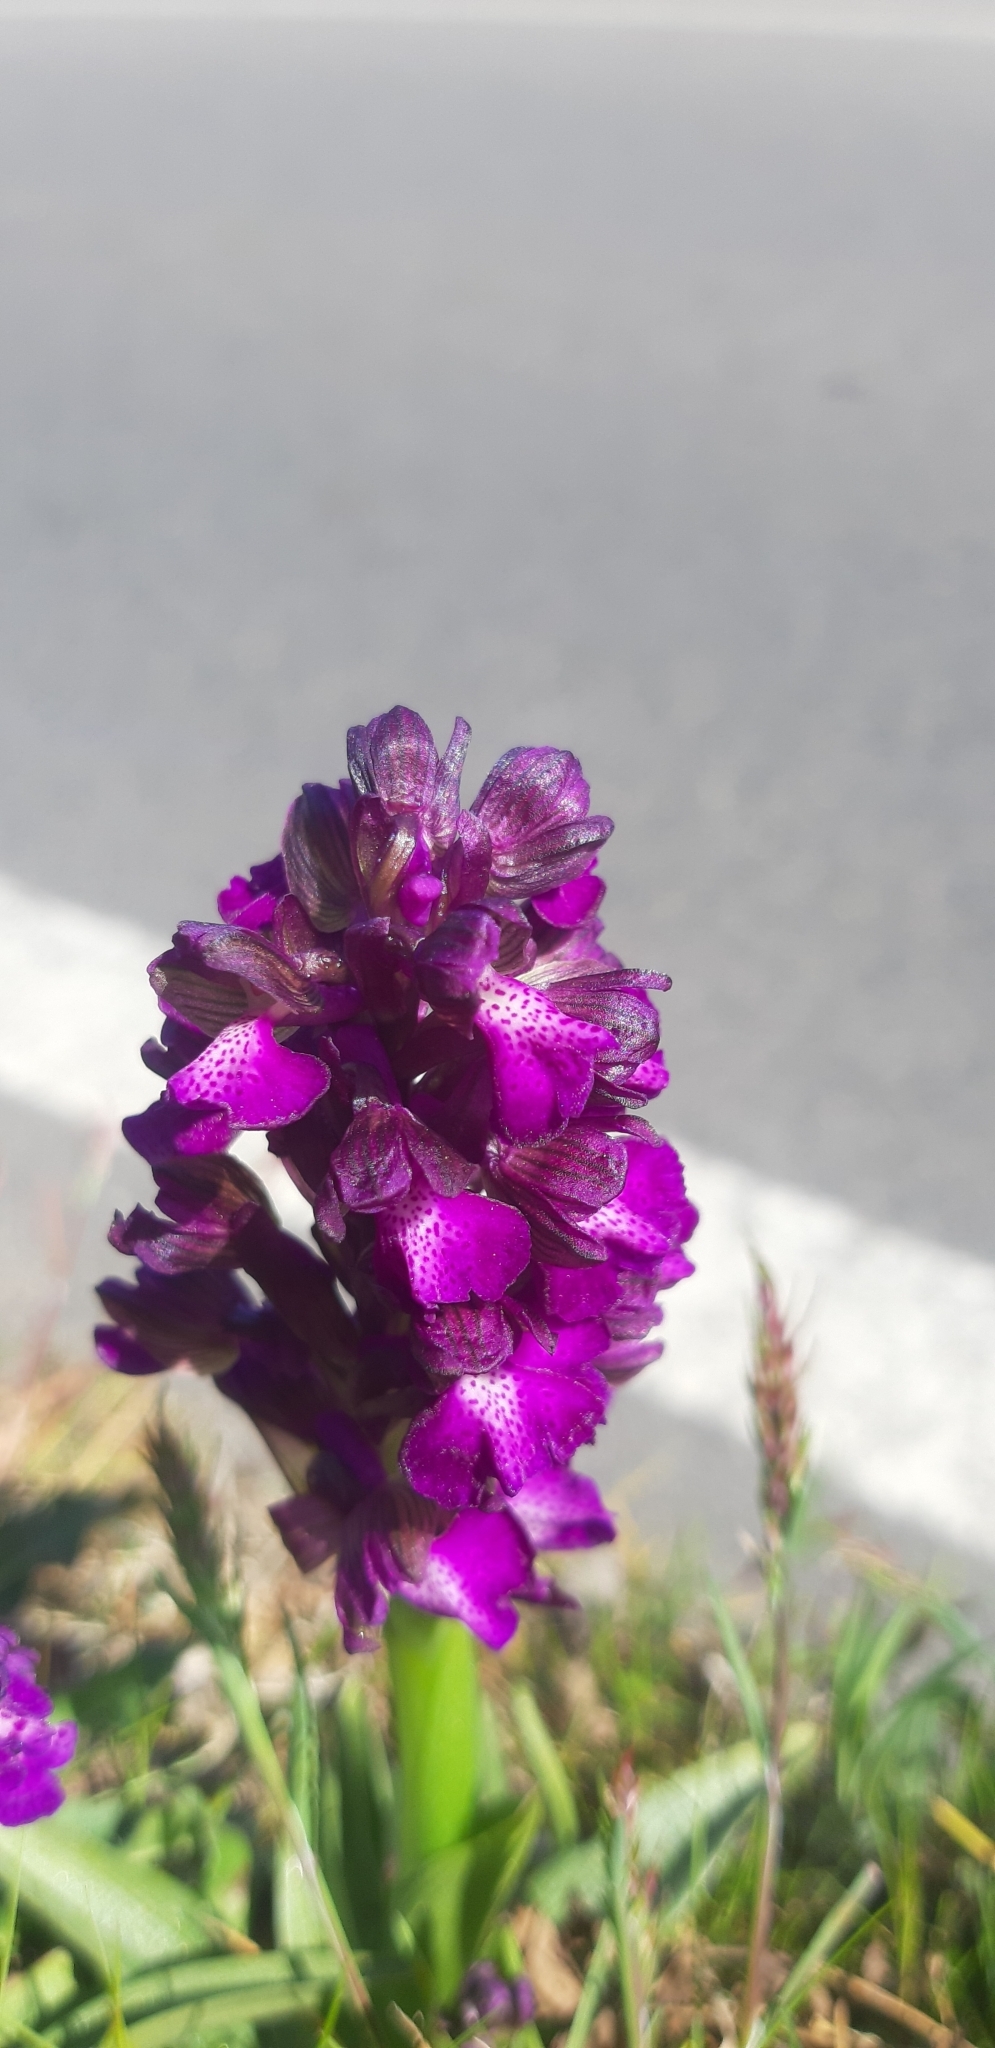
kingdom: Plantae
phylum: Tracheophyta
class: Liliopsida
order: Asparagales
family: Orchidaceae
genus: Anacamptis
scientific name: Anacamptis morio
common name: Green-winged orchid
